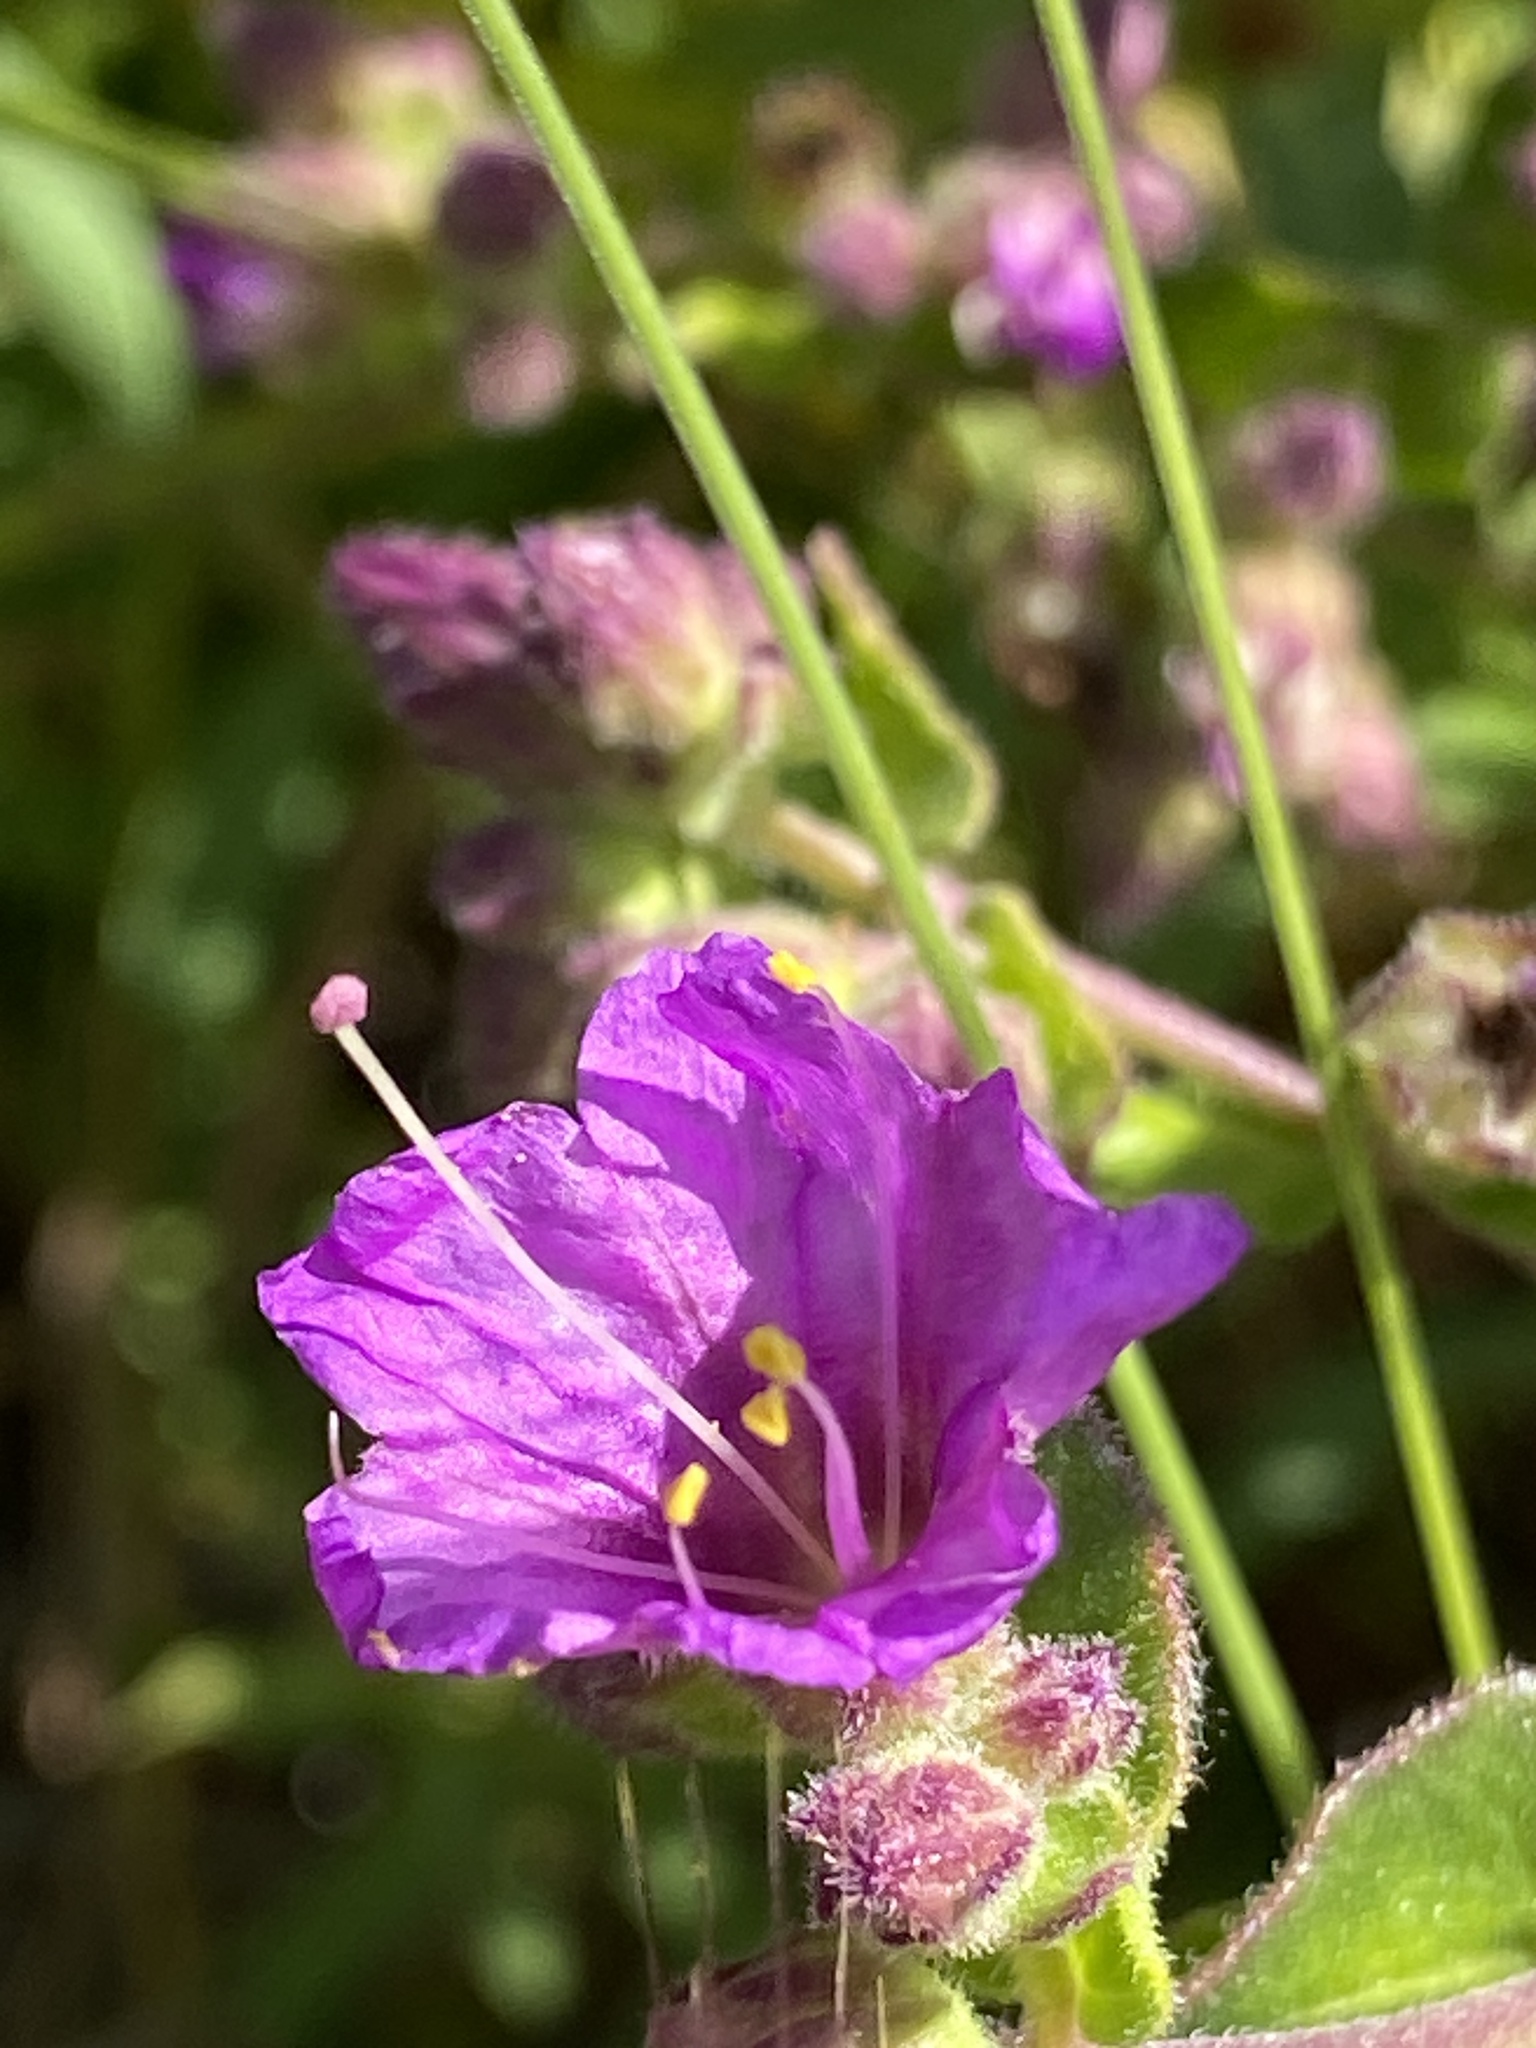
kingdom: Plantae
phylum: Tracheophyta
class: Magnoliopsida
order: Caryophyllales
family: Nyctaginaceae
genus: Mirabilis
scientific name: Mirabilis laevis
